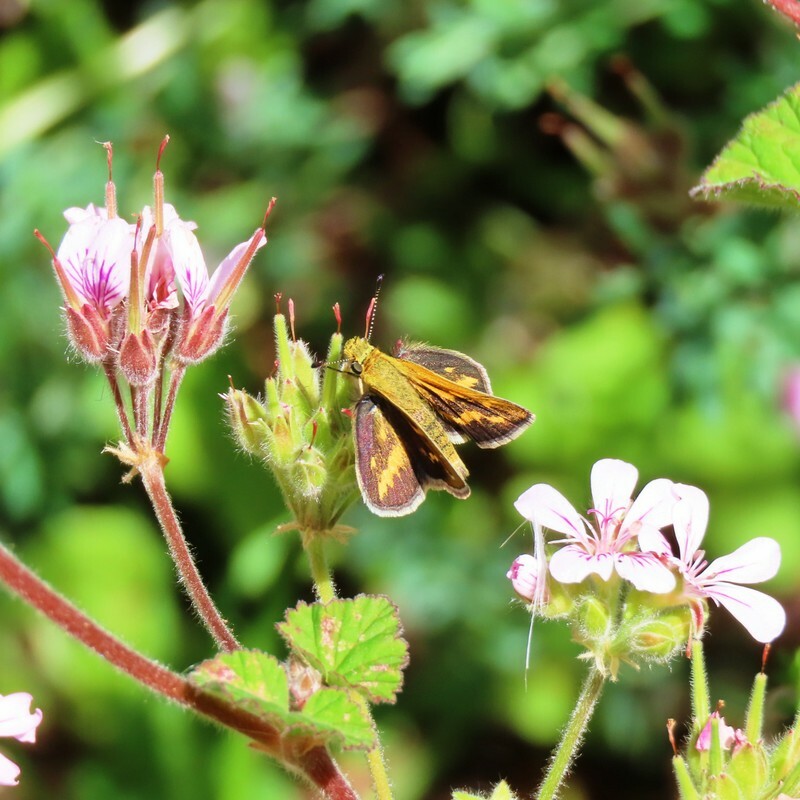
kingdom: Animalia
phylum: Arthropoda
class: Insecta
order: Lepidoptera
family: Hesperiidae
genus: Taractrocera
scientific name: Taractrocera papyria
